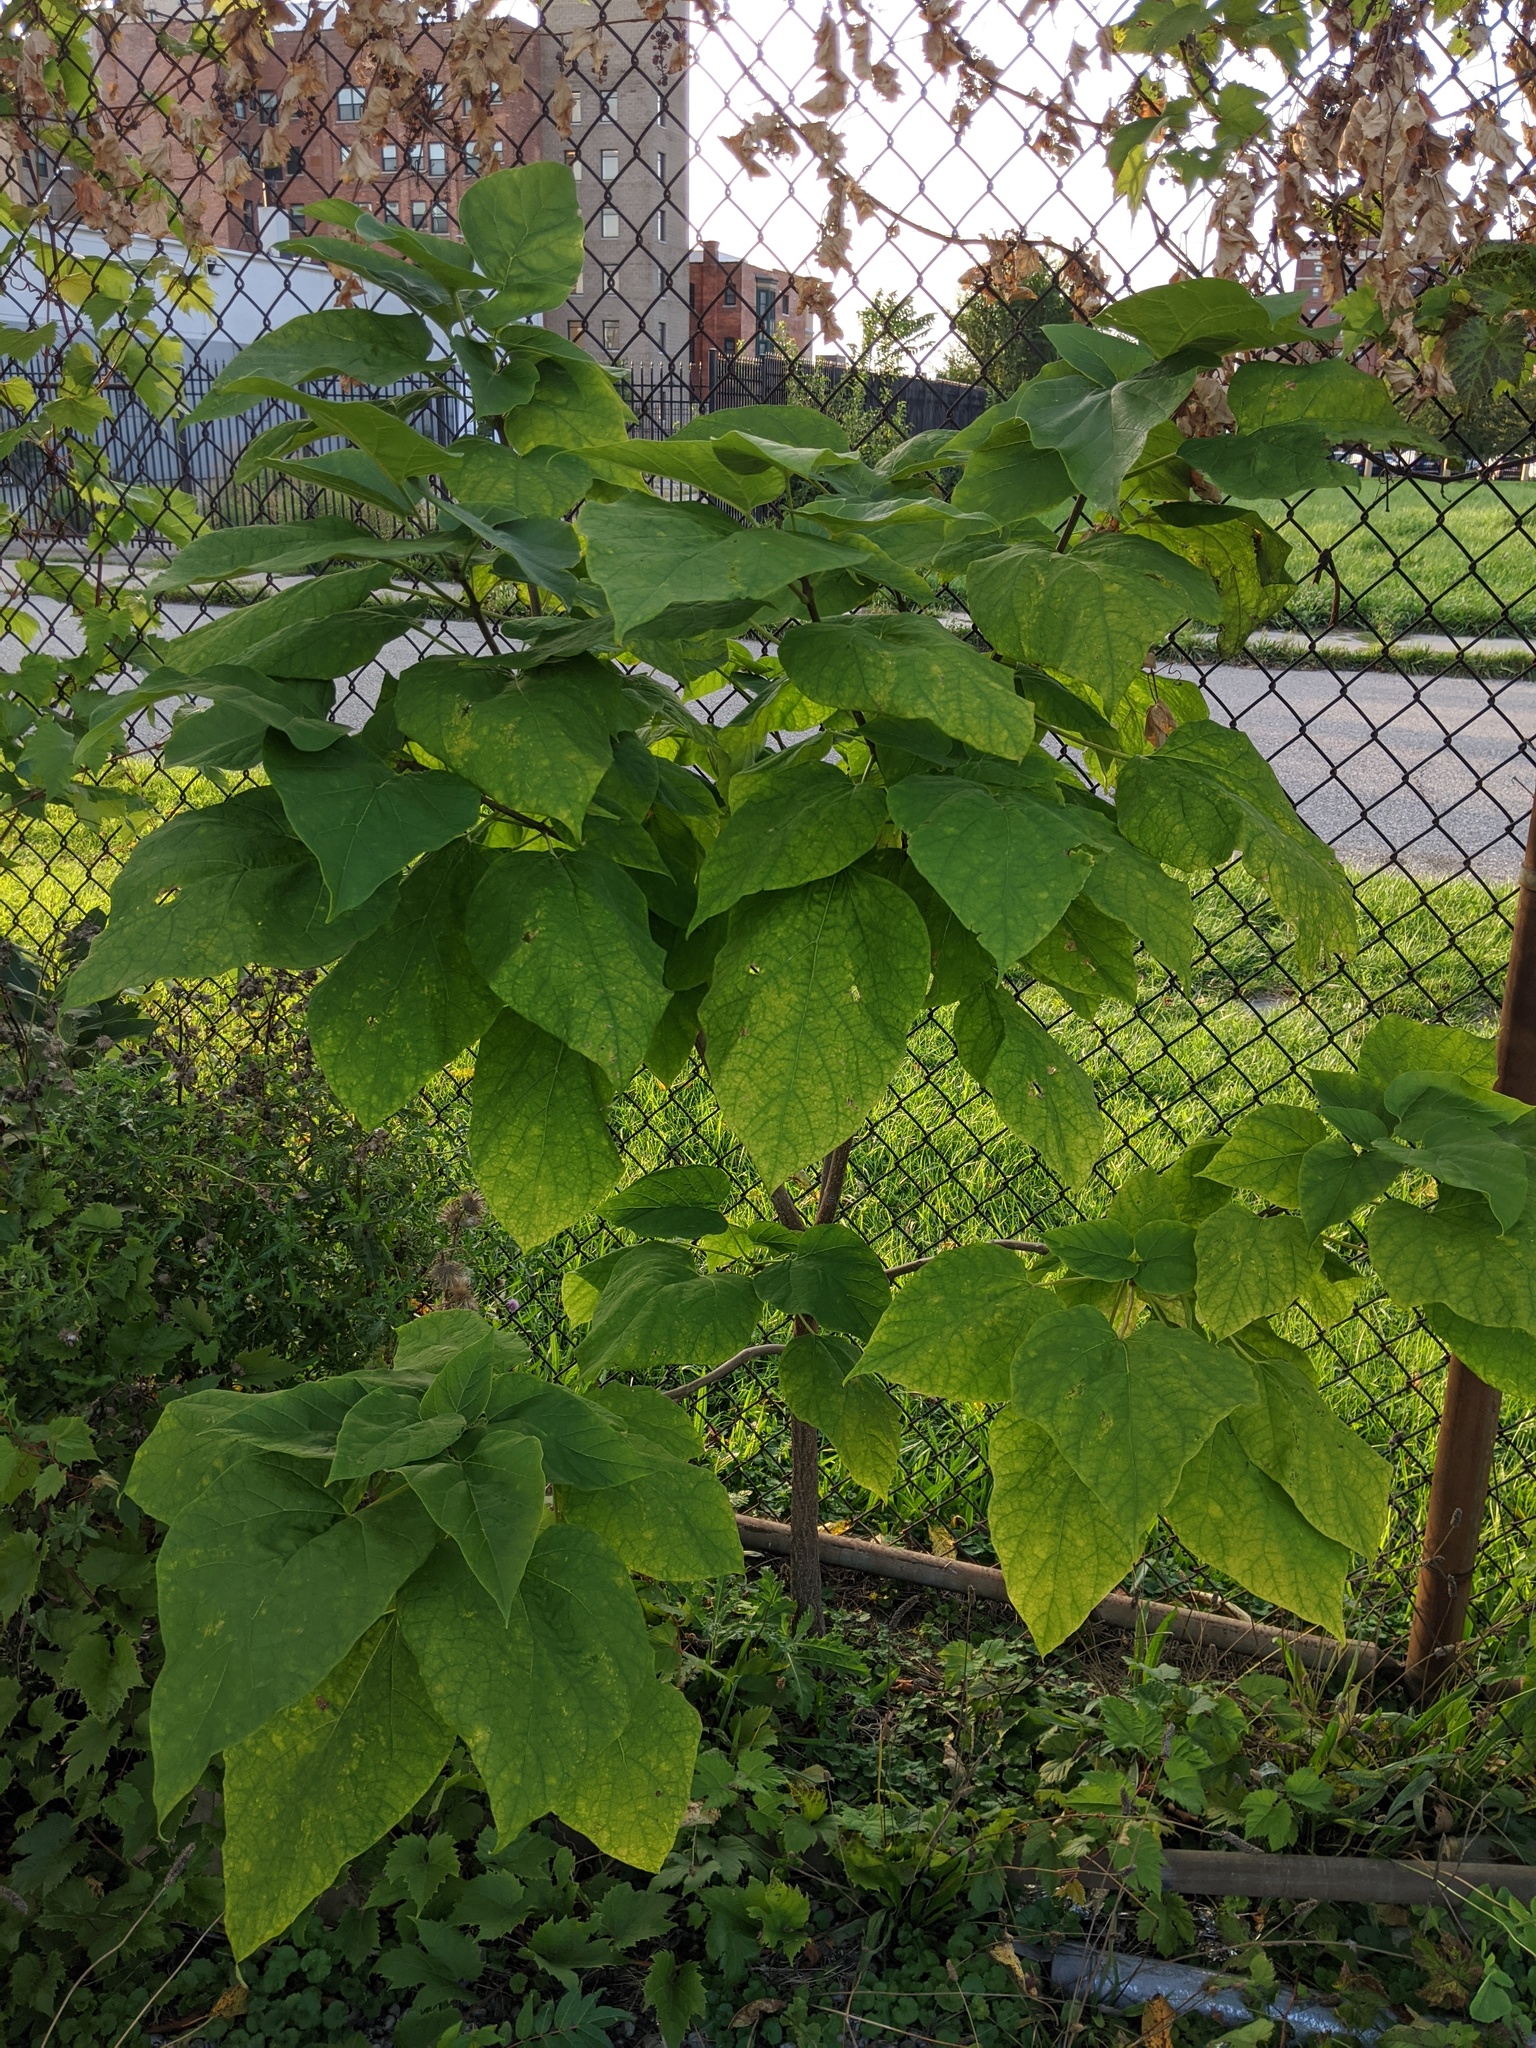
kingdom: Plantae
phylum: Tracheophyta
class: Magnoliopsida
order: Lamiales
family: Bignoniaceae
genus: Catalpa
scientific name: Catalpa speciosa
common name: Northern catalpa
